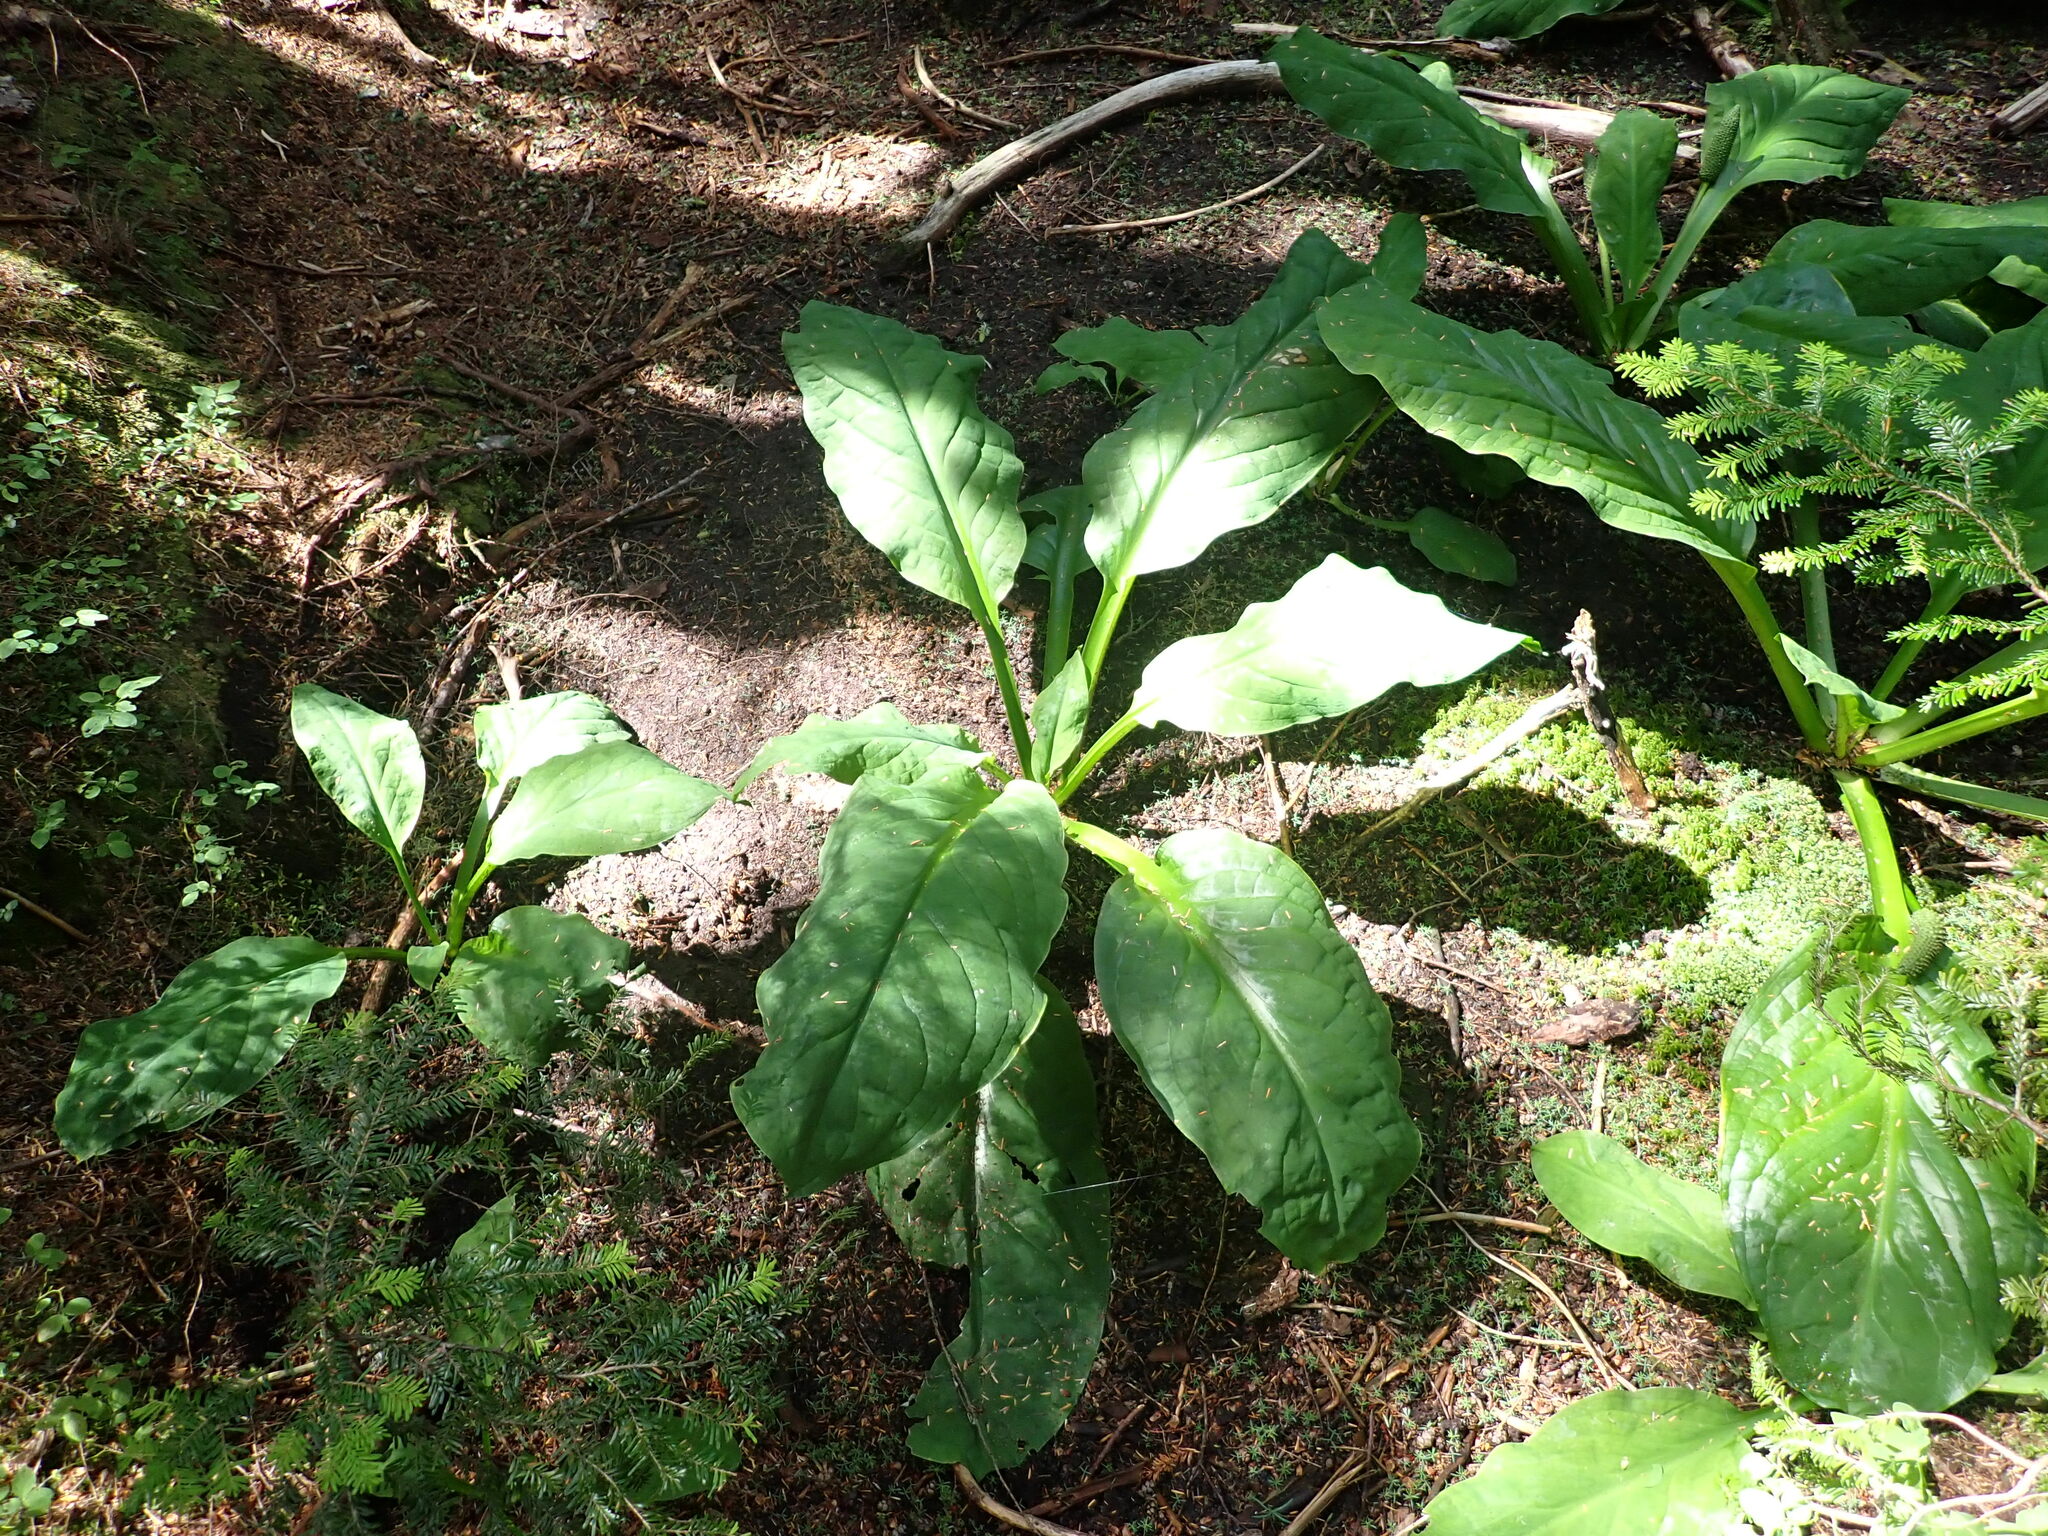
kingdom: Plantae
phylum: Tracheophyta
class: Liliopsida
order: Alismatales
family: Araceae
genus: Lysichiton
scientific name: Lysichiton americanus
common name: American skunk cabbage
